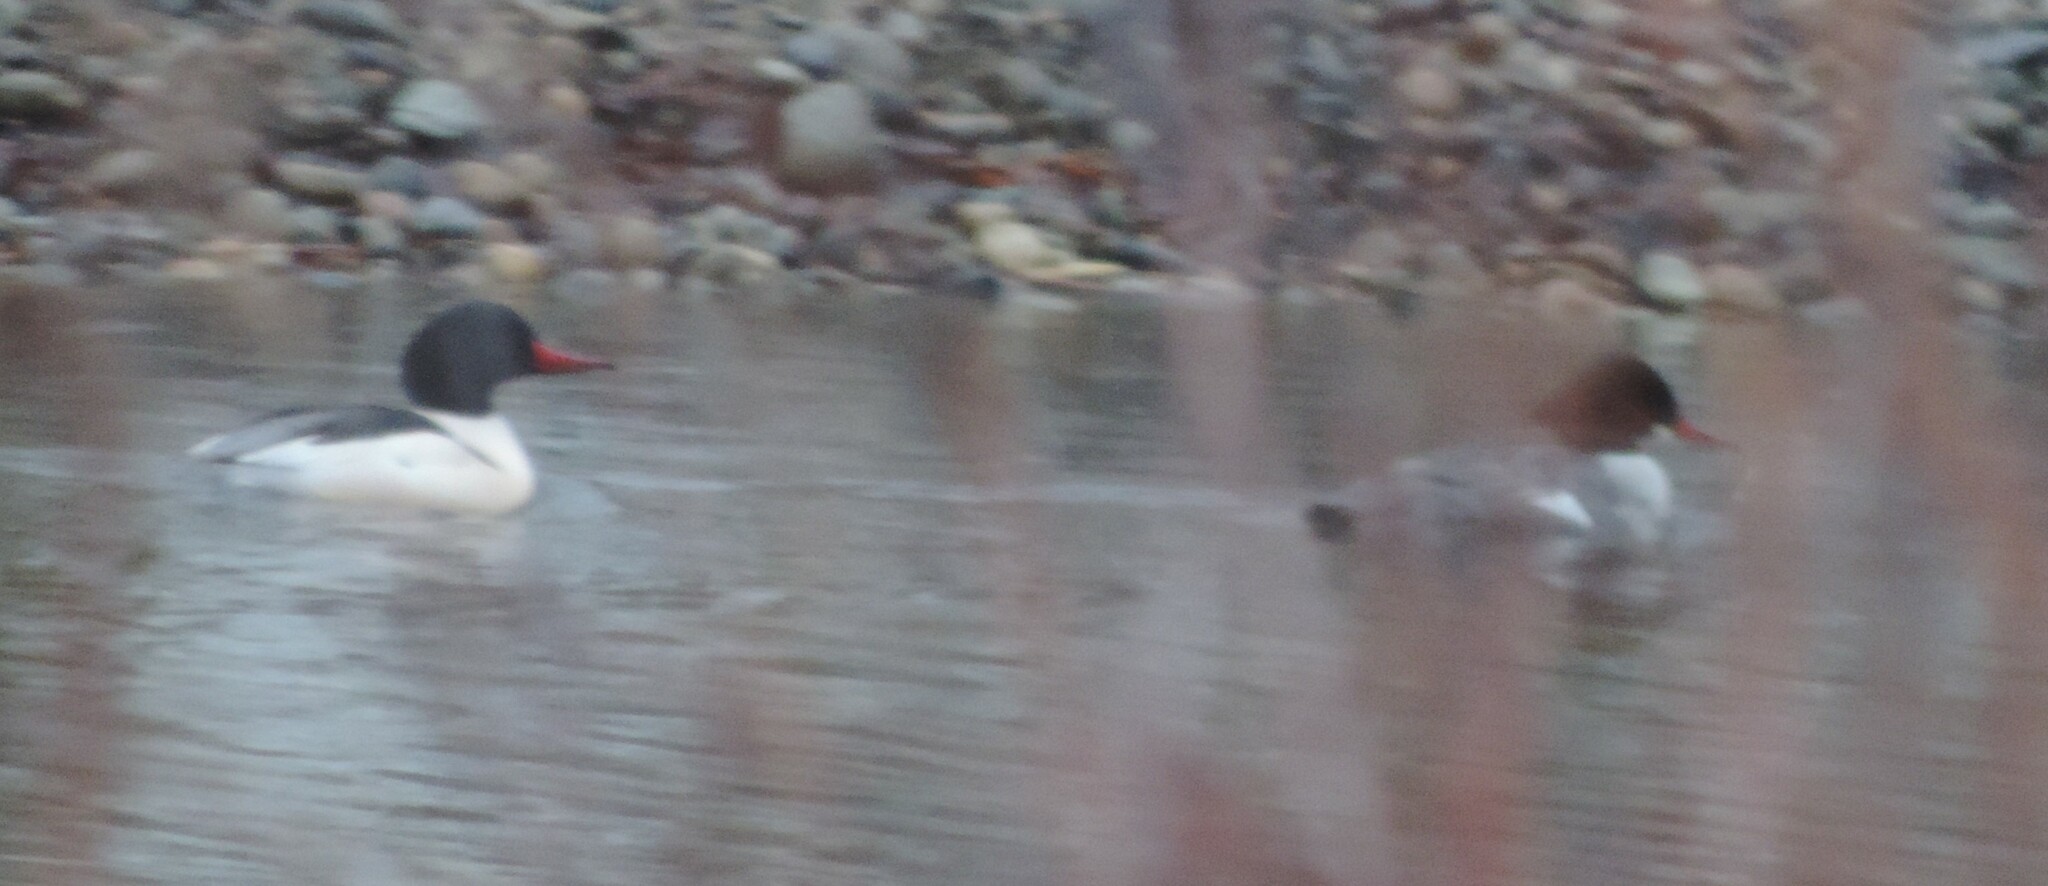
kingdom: Animalia
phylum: Chordata
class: Aves
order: Anseriformes
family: Anatidae
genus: Mergus
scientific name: Mergus merganser
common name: Common merganser
